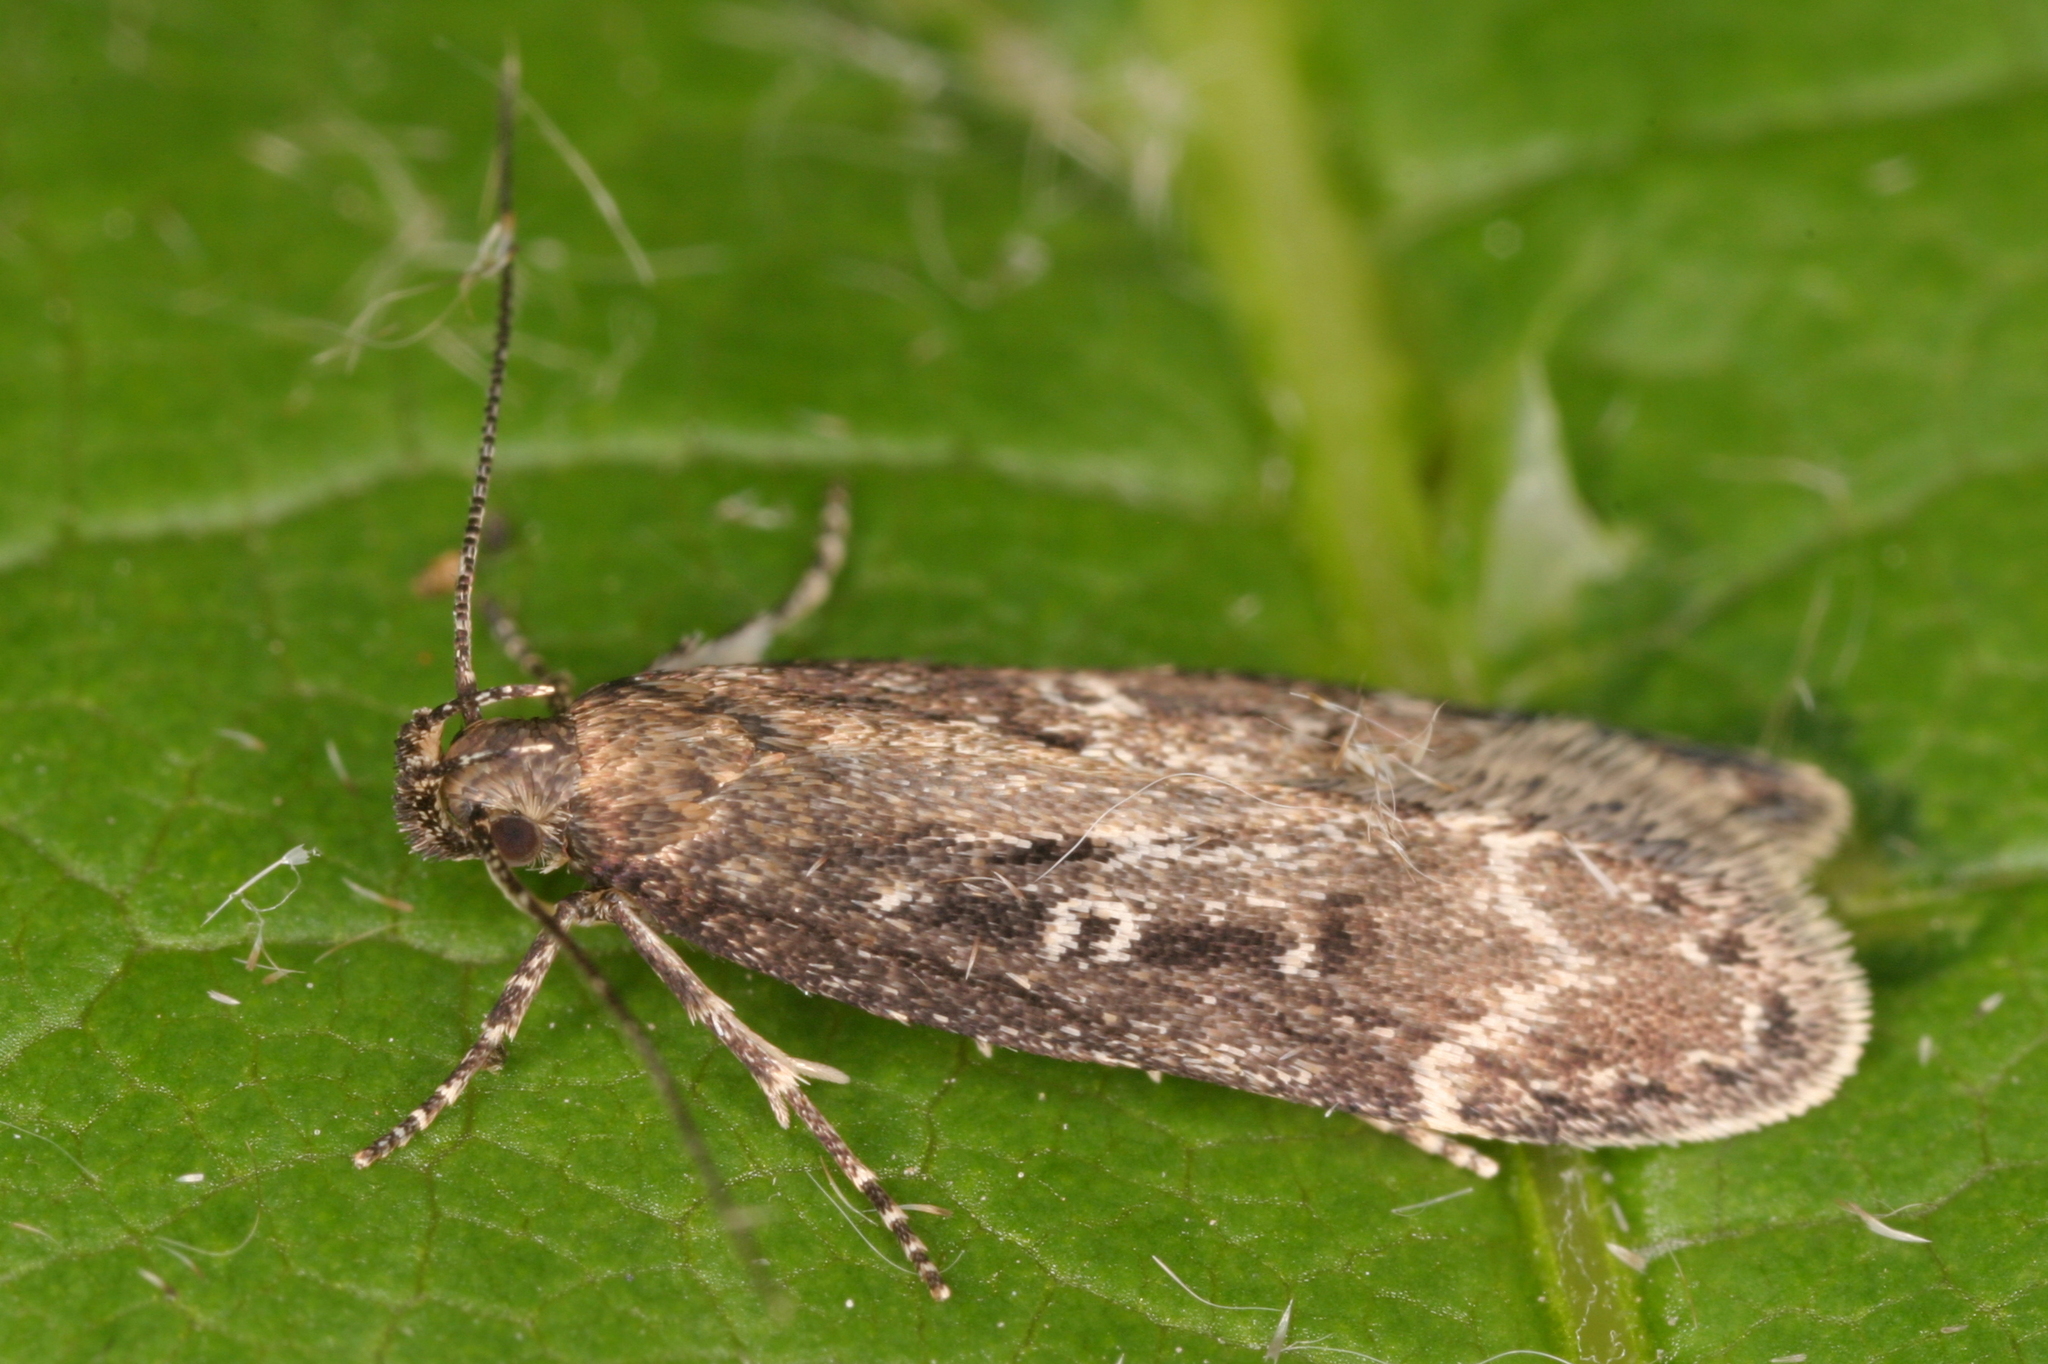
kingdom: Animalia
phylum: Arthropoda
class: Insecta
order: Lepidoptera
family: Gelechiidae
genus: Gelechia
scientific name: Gelechia sororculella
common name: Dark-striped groundling
